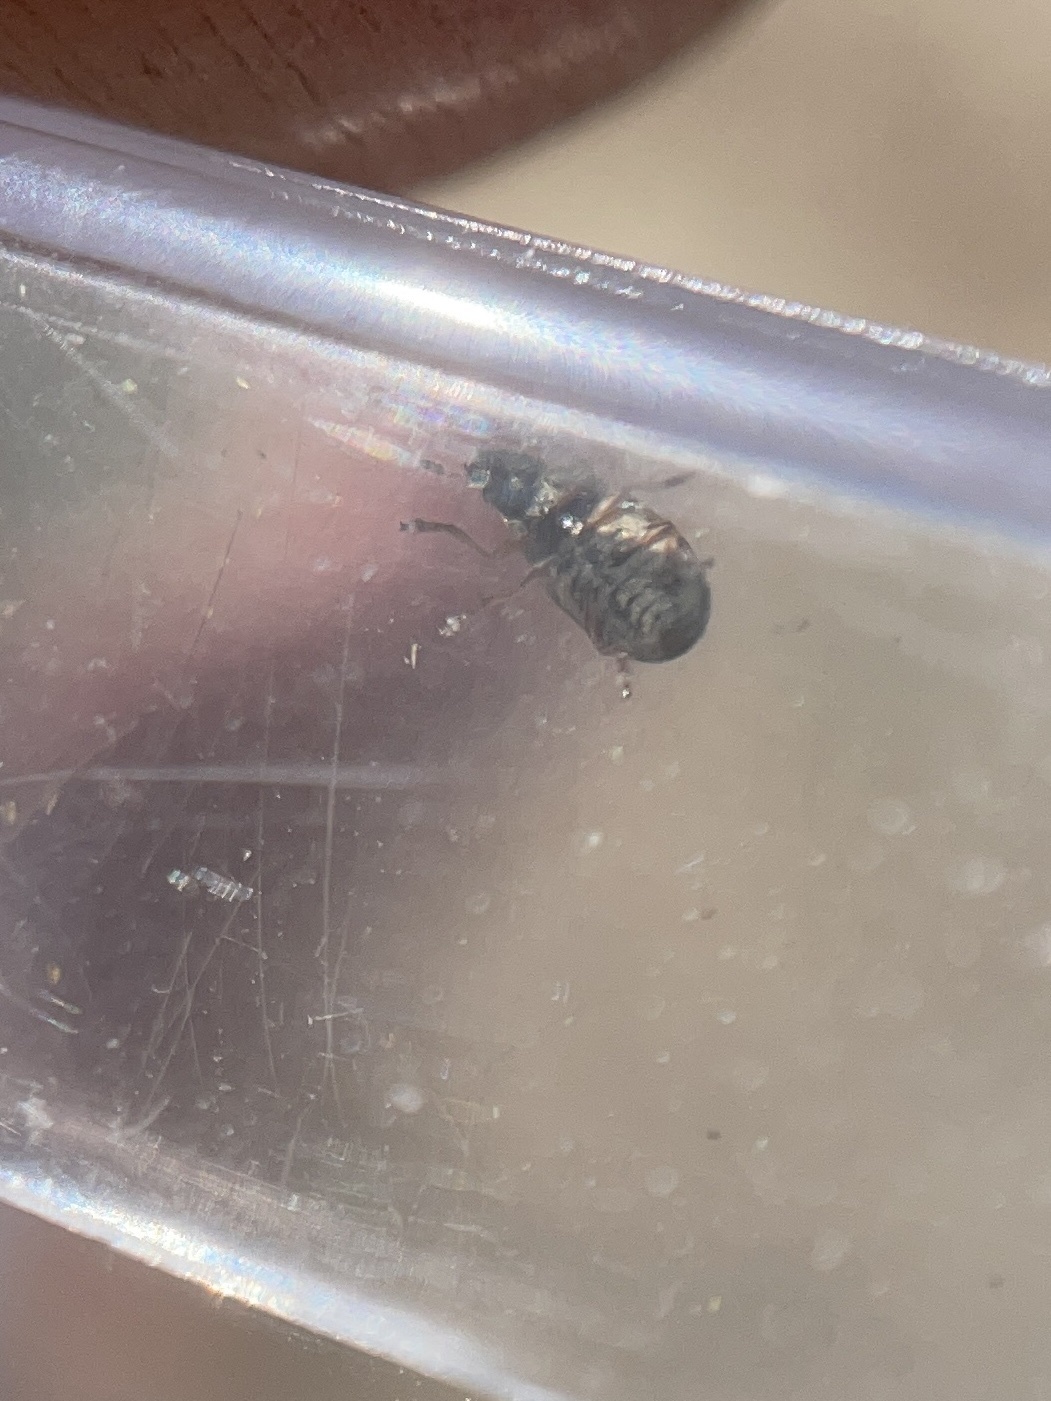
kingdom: Animalia
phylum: Arthropoda
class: Insecta
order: Coleoptera
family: Anthribidae
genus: Trigonorhinus
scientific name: Trigonorhinus limbatus
